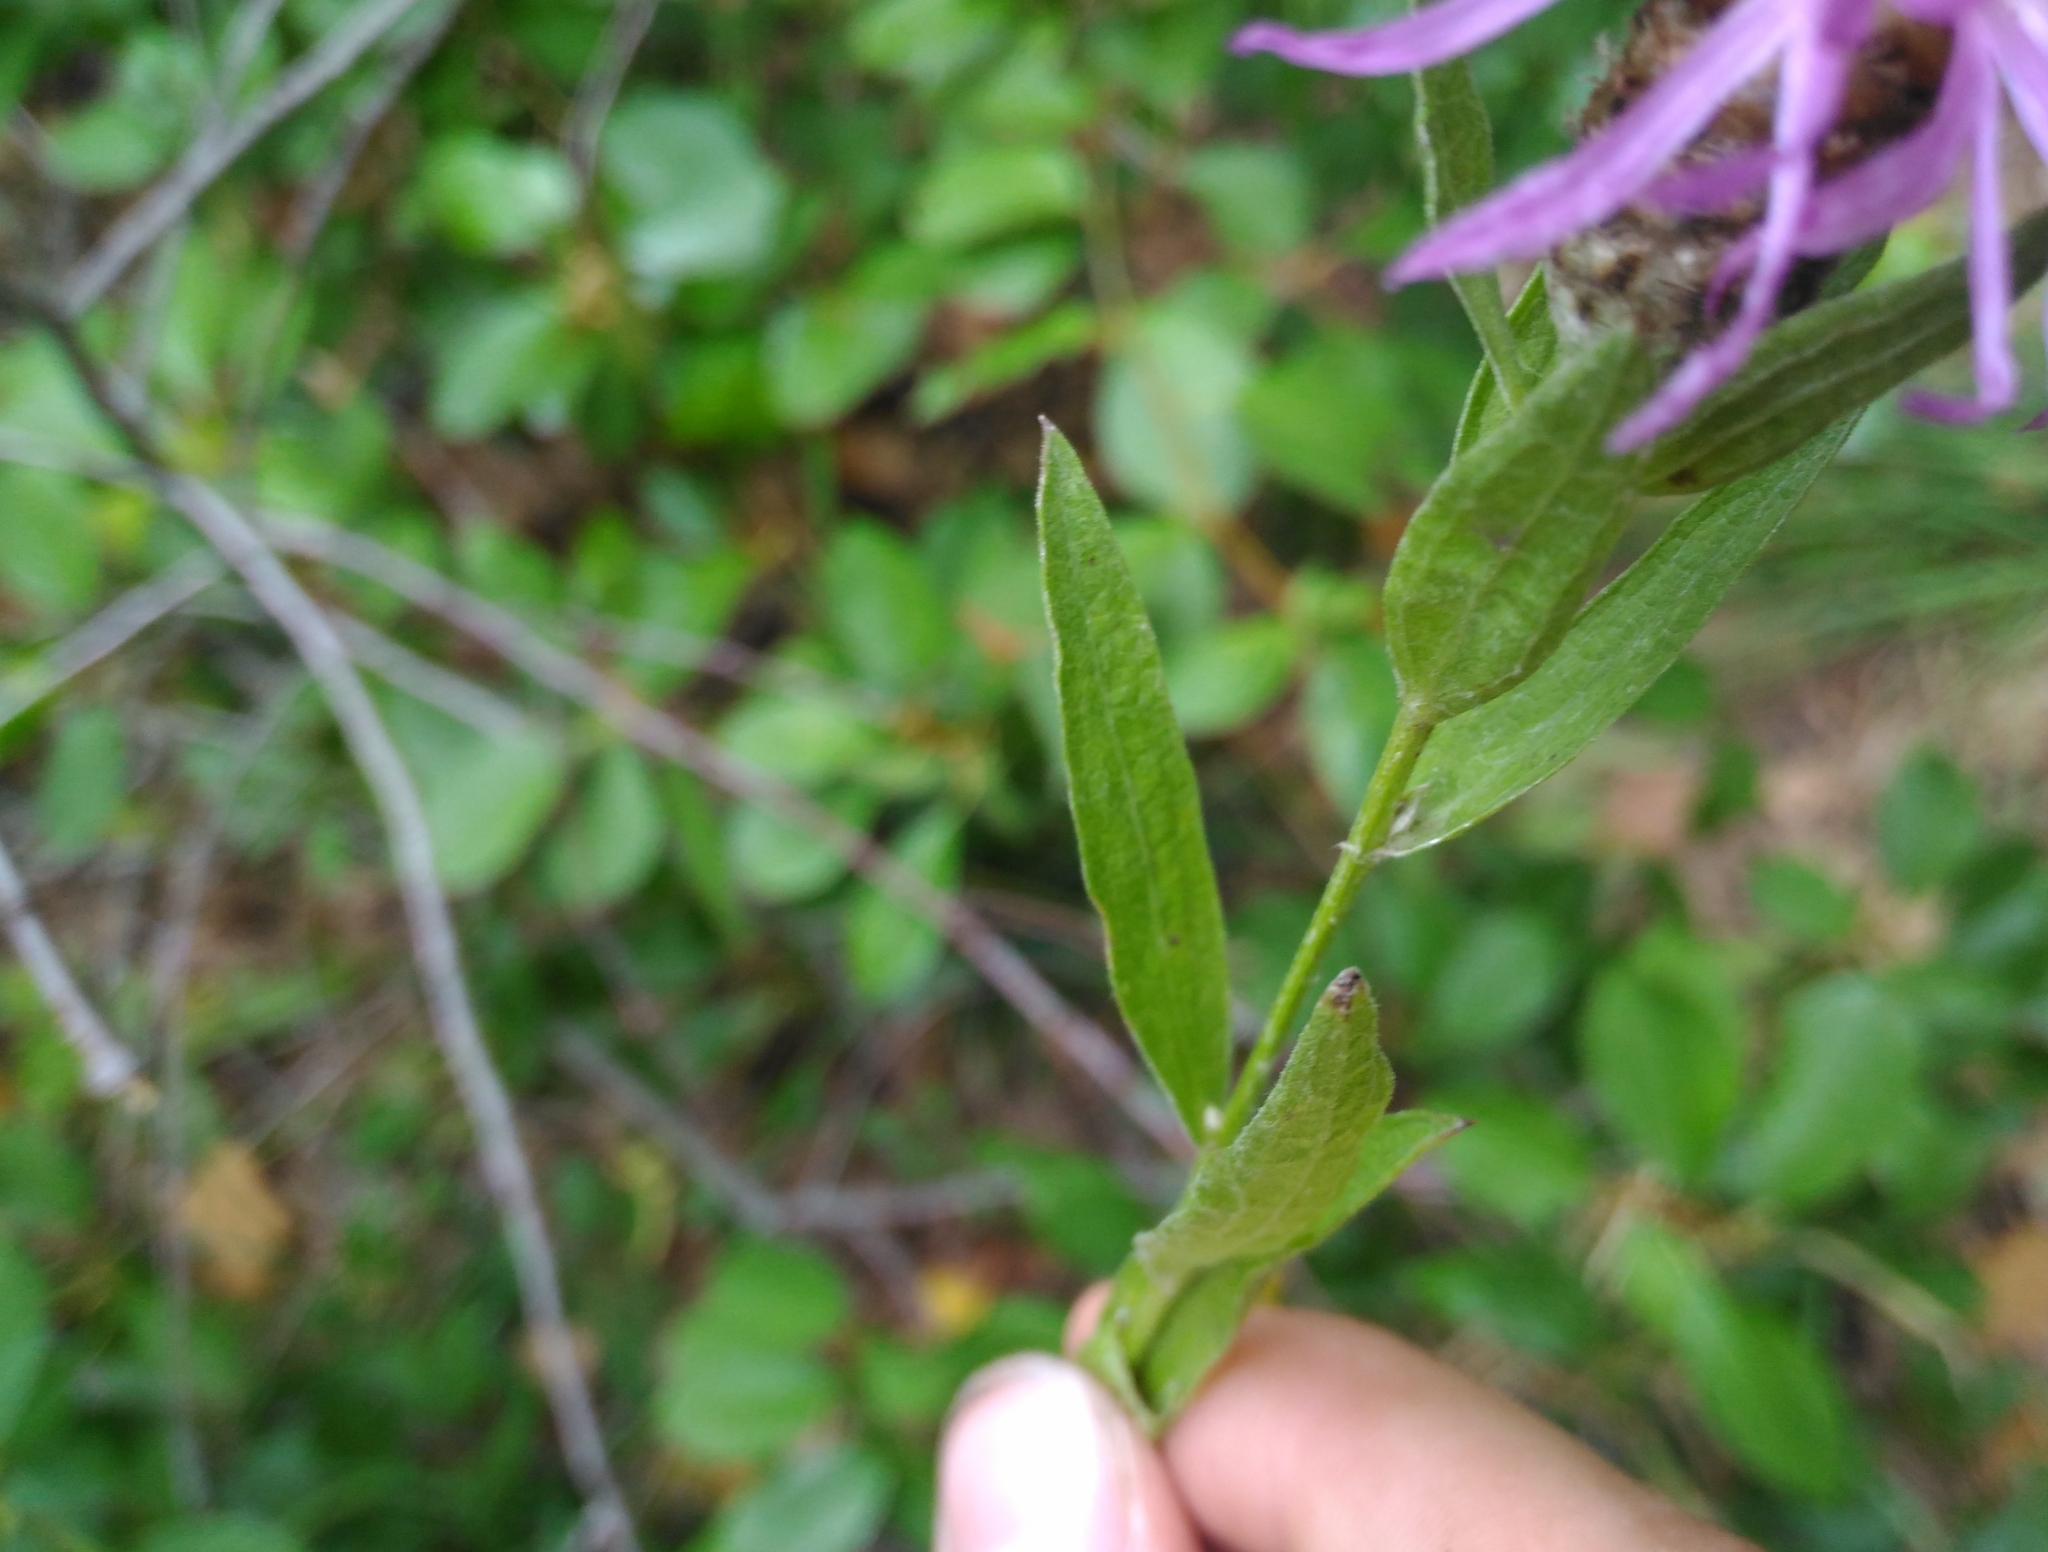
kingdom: Plantae
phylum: Tracheophyta
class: Magnoliopsida
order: Asterales
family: Asteraceae
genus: Centaurea
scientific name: Centaurea jacea
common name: Brown knapweed
